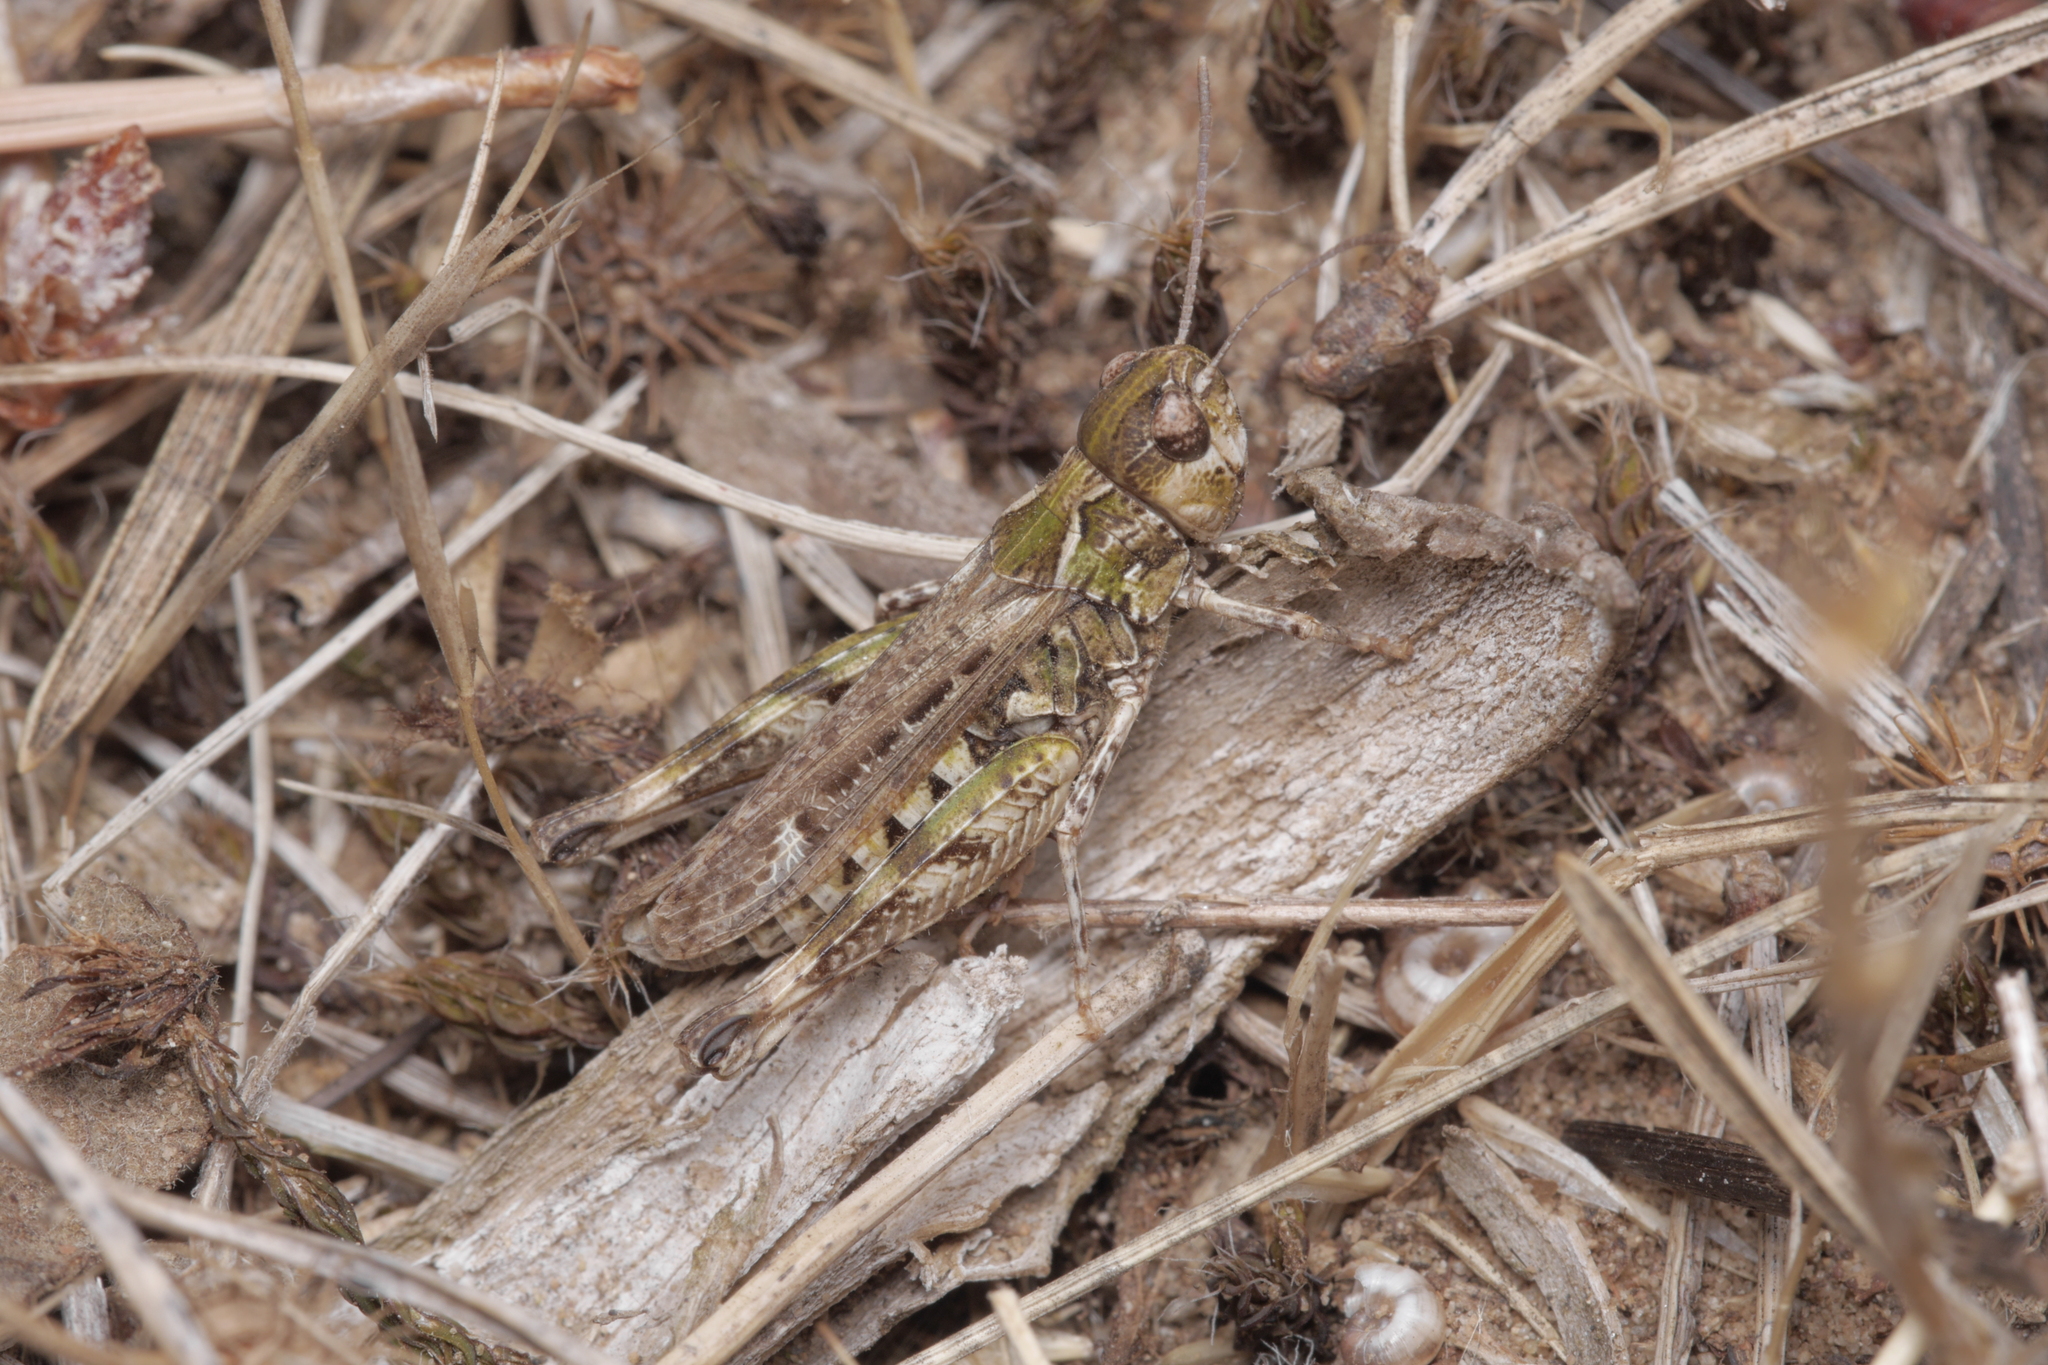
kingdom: Animalia
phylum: Arthropoda
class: Insecta
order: Orthoptera
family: Acrididae
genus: Myrmeleotettix
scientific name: Myrmeleotettix maculatus
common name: Mottled grasshopper
